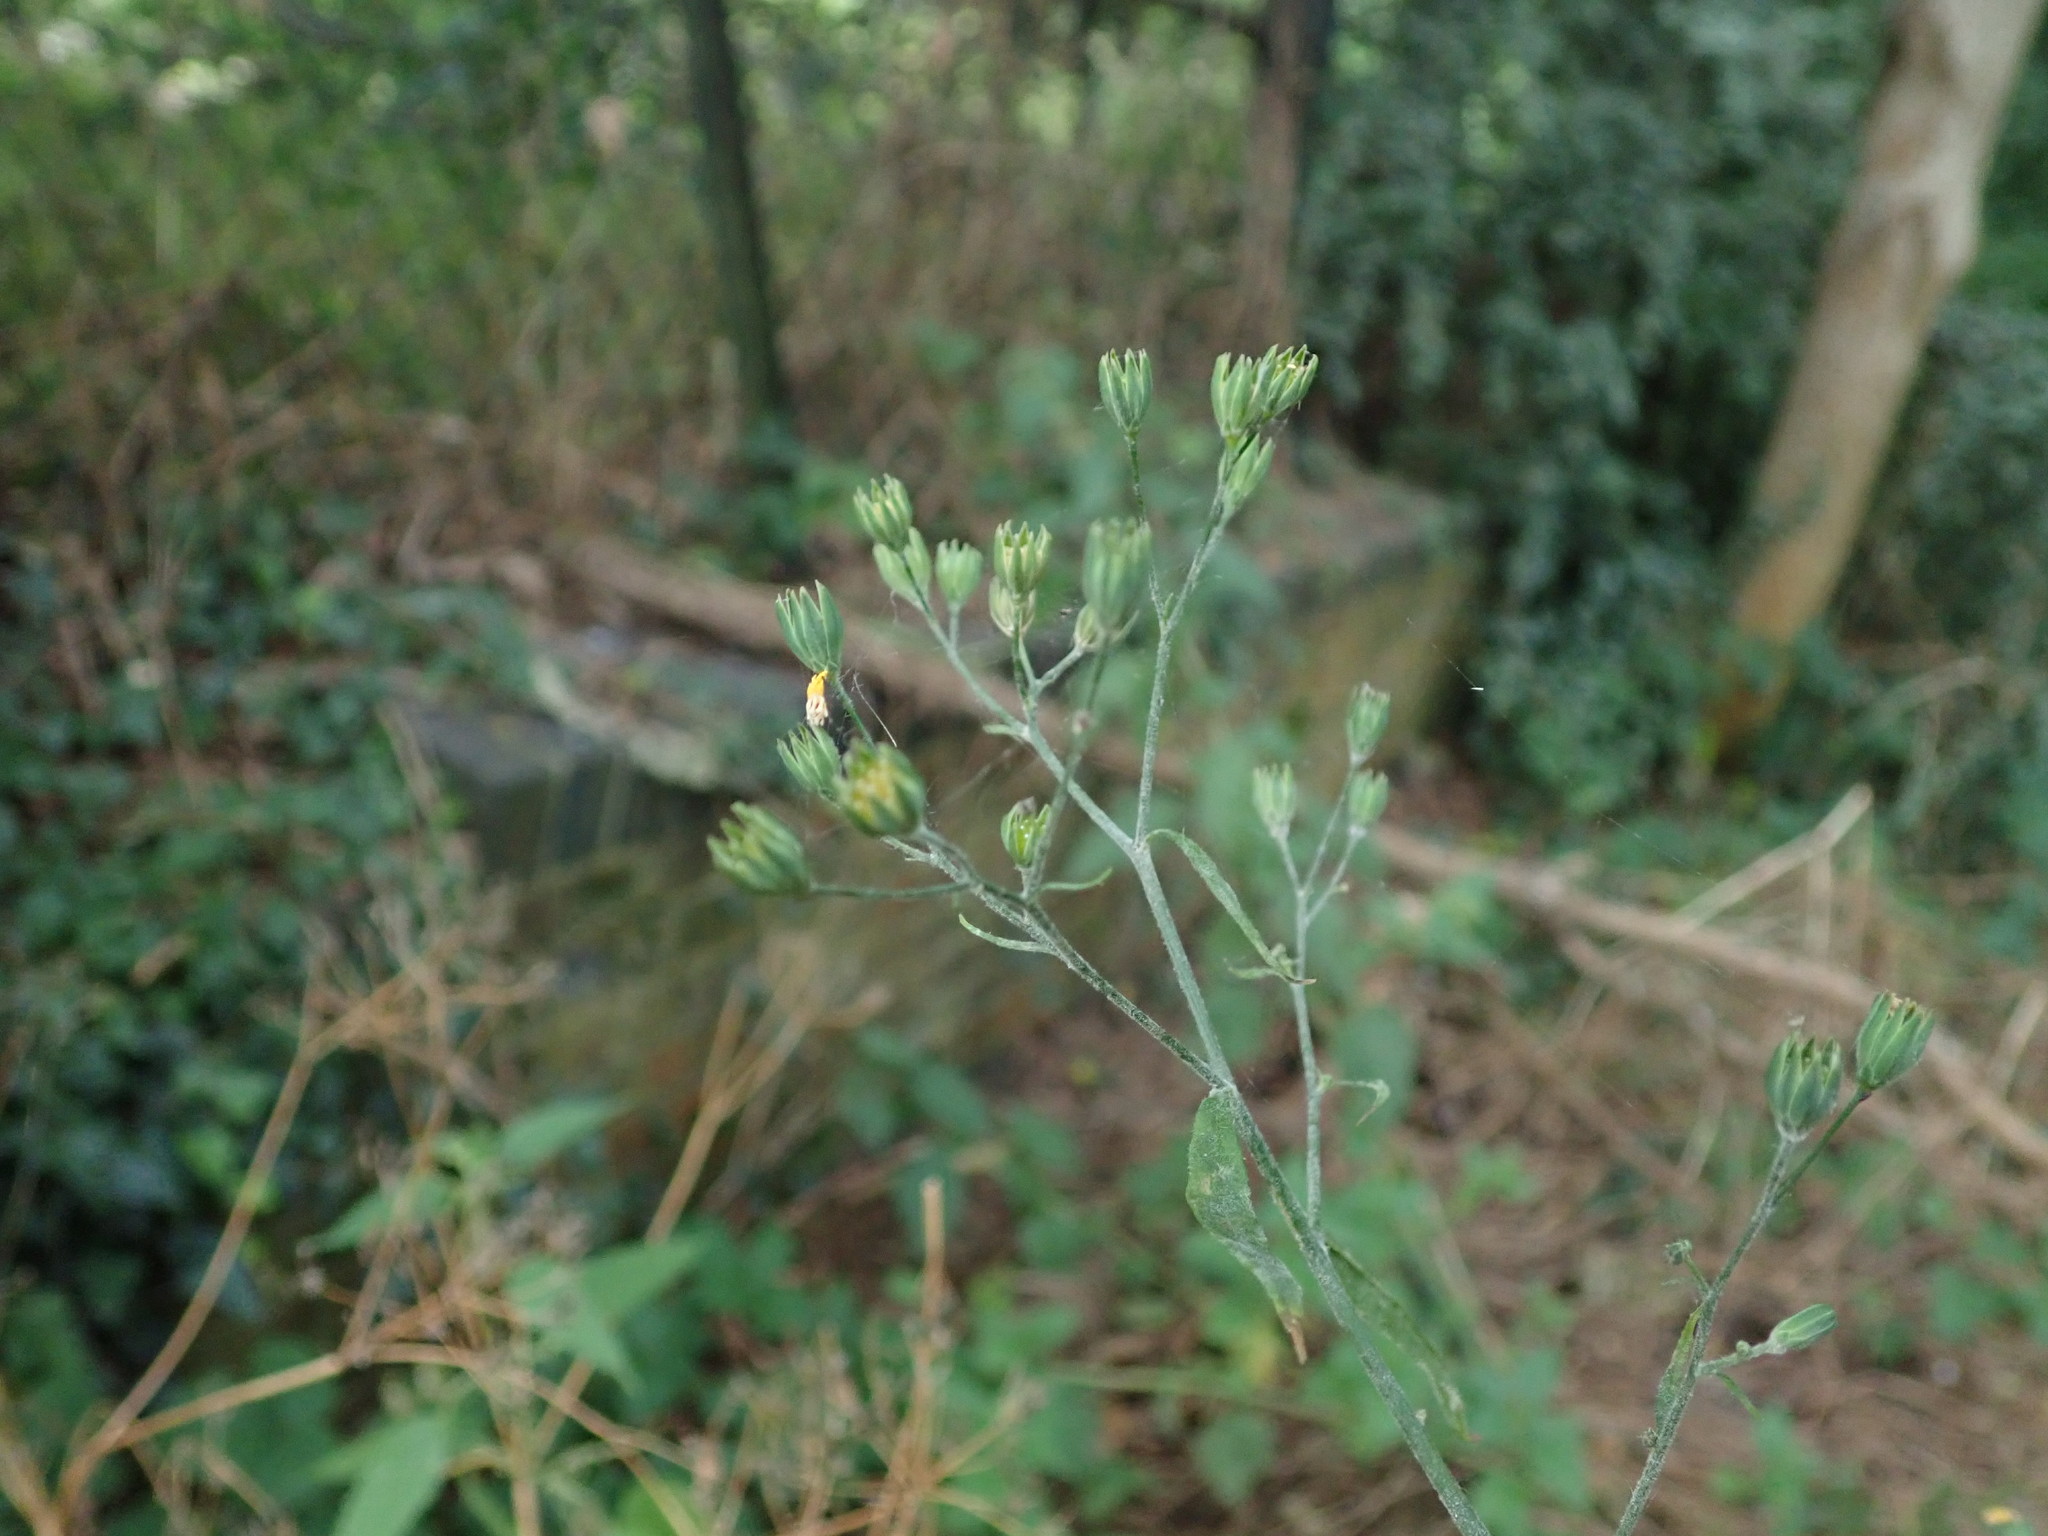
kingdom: Plantae
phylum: Tracheophyta
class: Magnoliopsida
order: Asterales
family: Asteraceae
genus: Lapsana
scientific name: Lapsana communis
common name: Nipplewort
